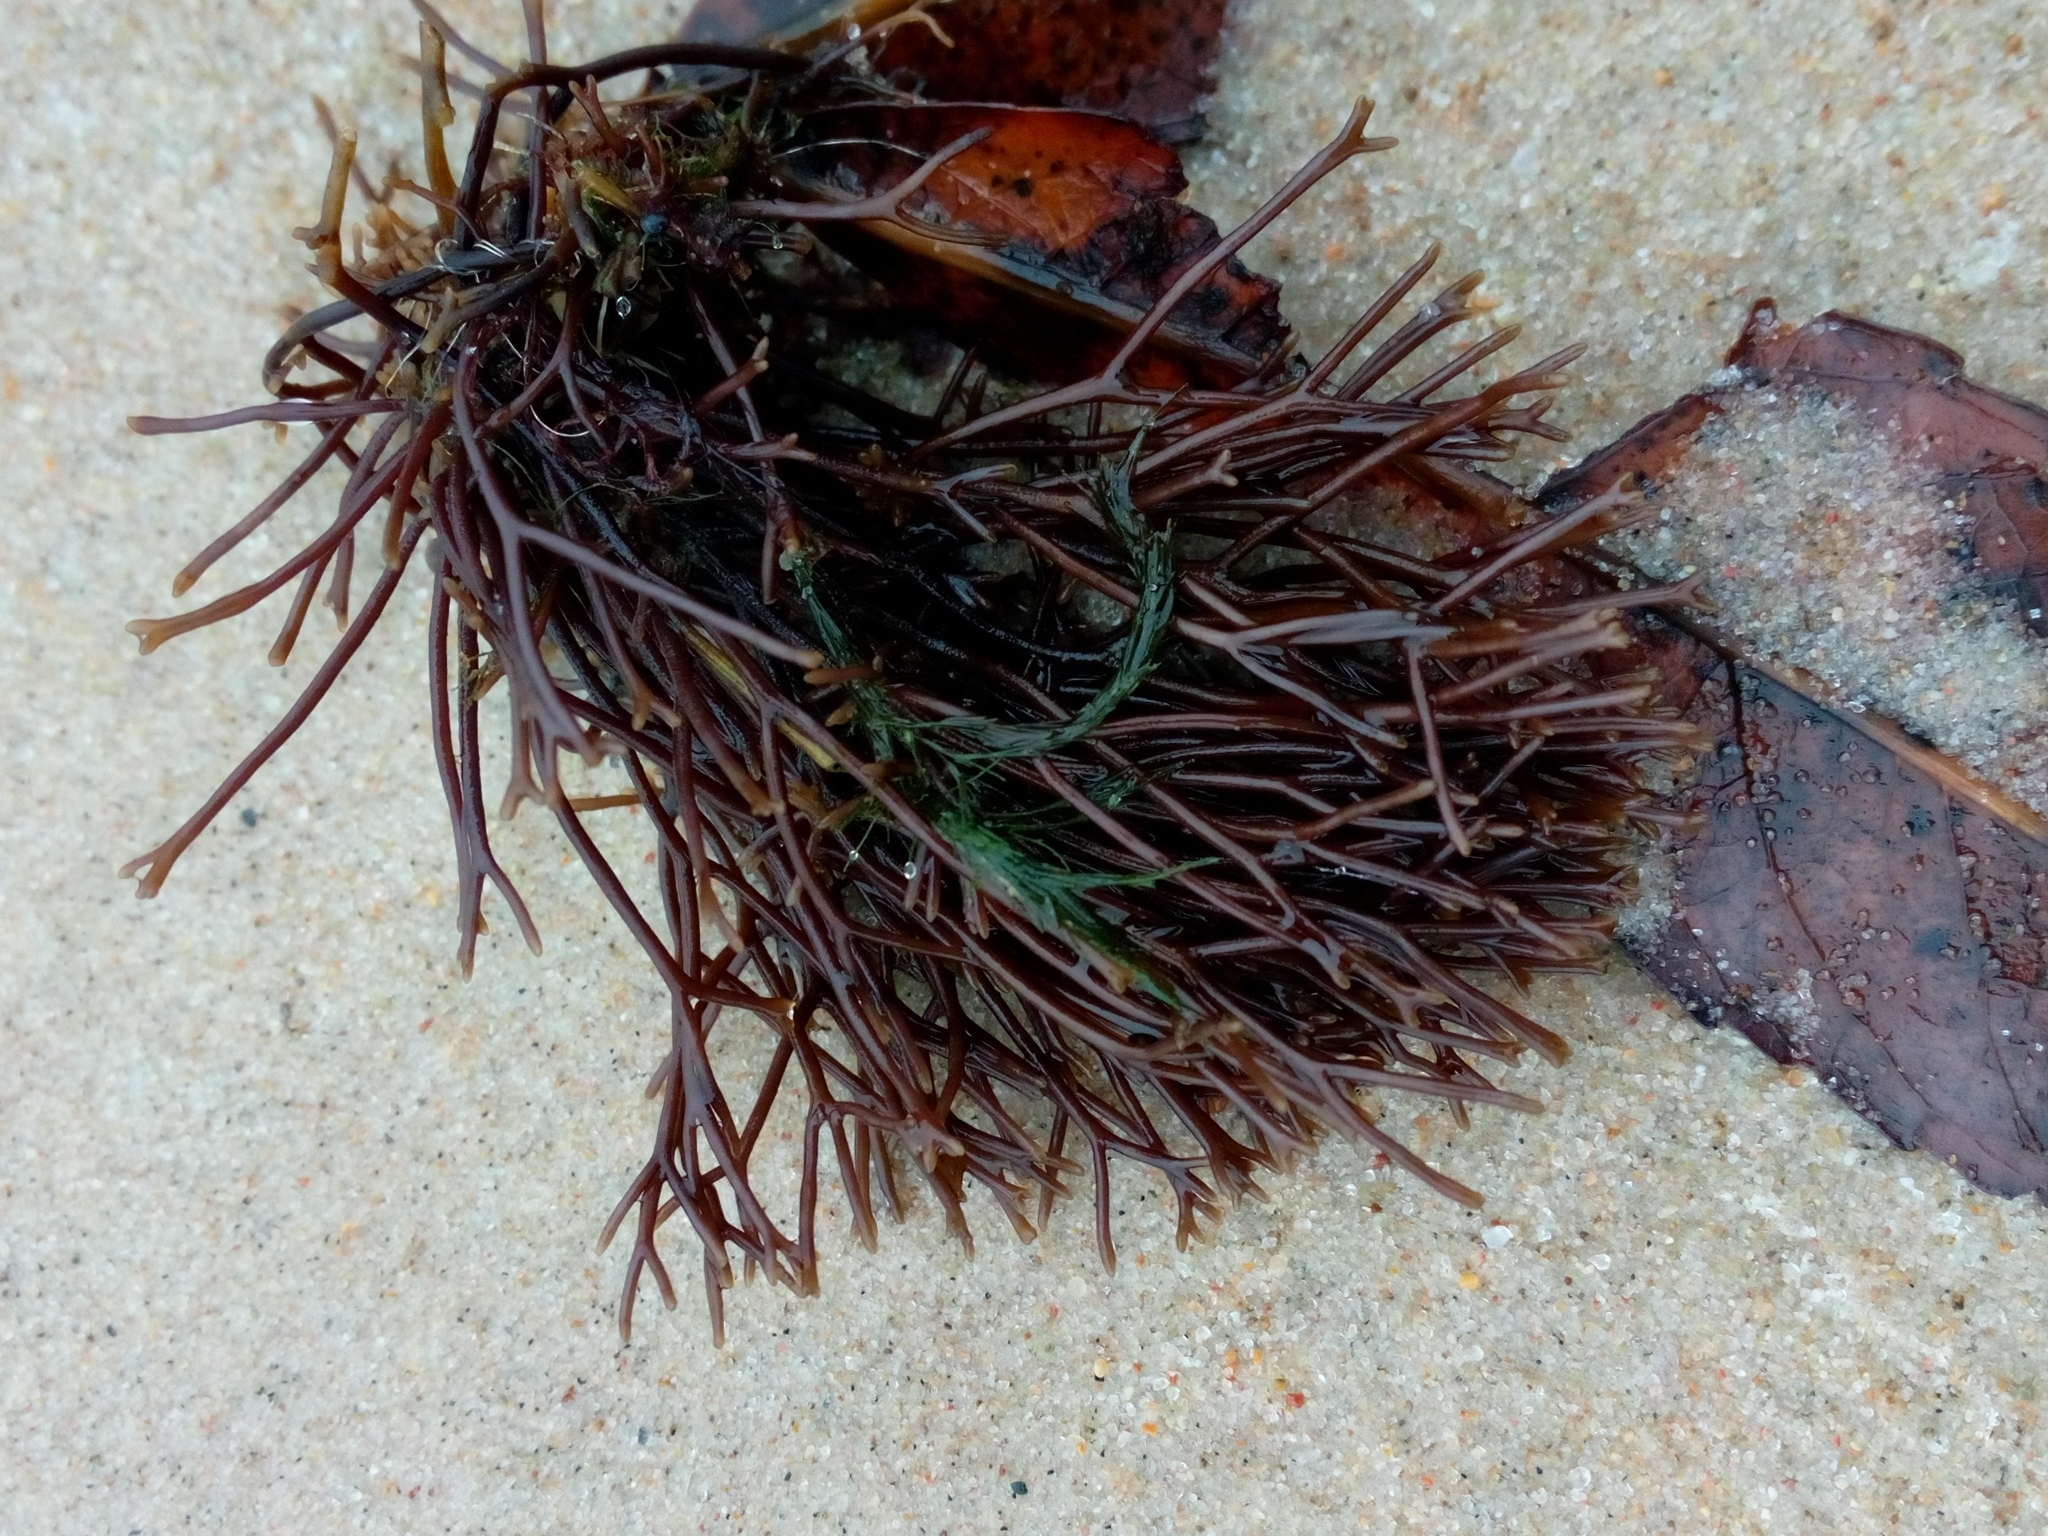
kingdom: Plantae
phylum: Rhodophyta
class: Florideophyceae
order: Gigartinales
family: Furcellariaceae
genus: Furcellaria
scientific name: Furcellaria lumbricalis
